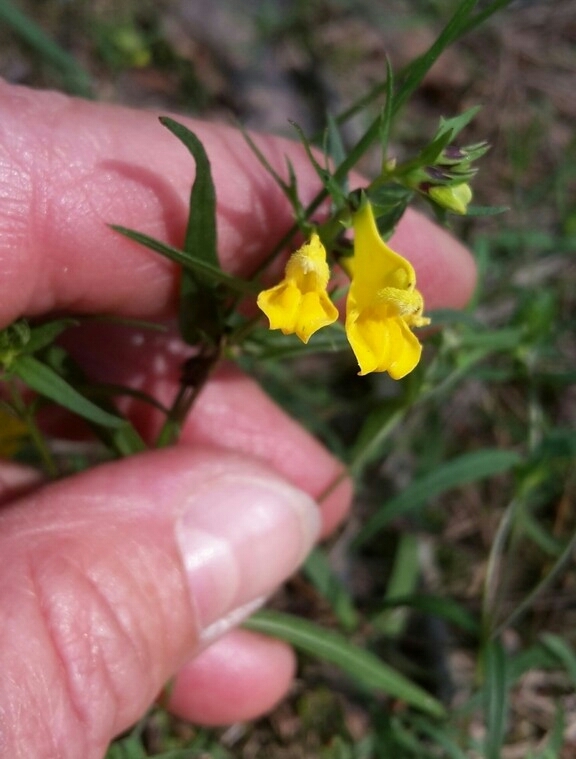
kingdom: Plantae
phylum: Tracheophyta
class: Magnoliopsida
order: Lamiales
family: Orobanchaceae
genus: Melampyrum
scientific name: Melampyrum pratense
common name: Common cow-wheat
